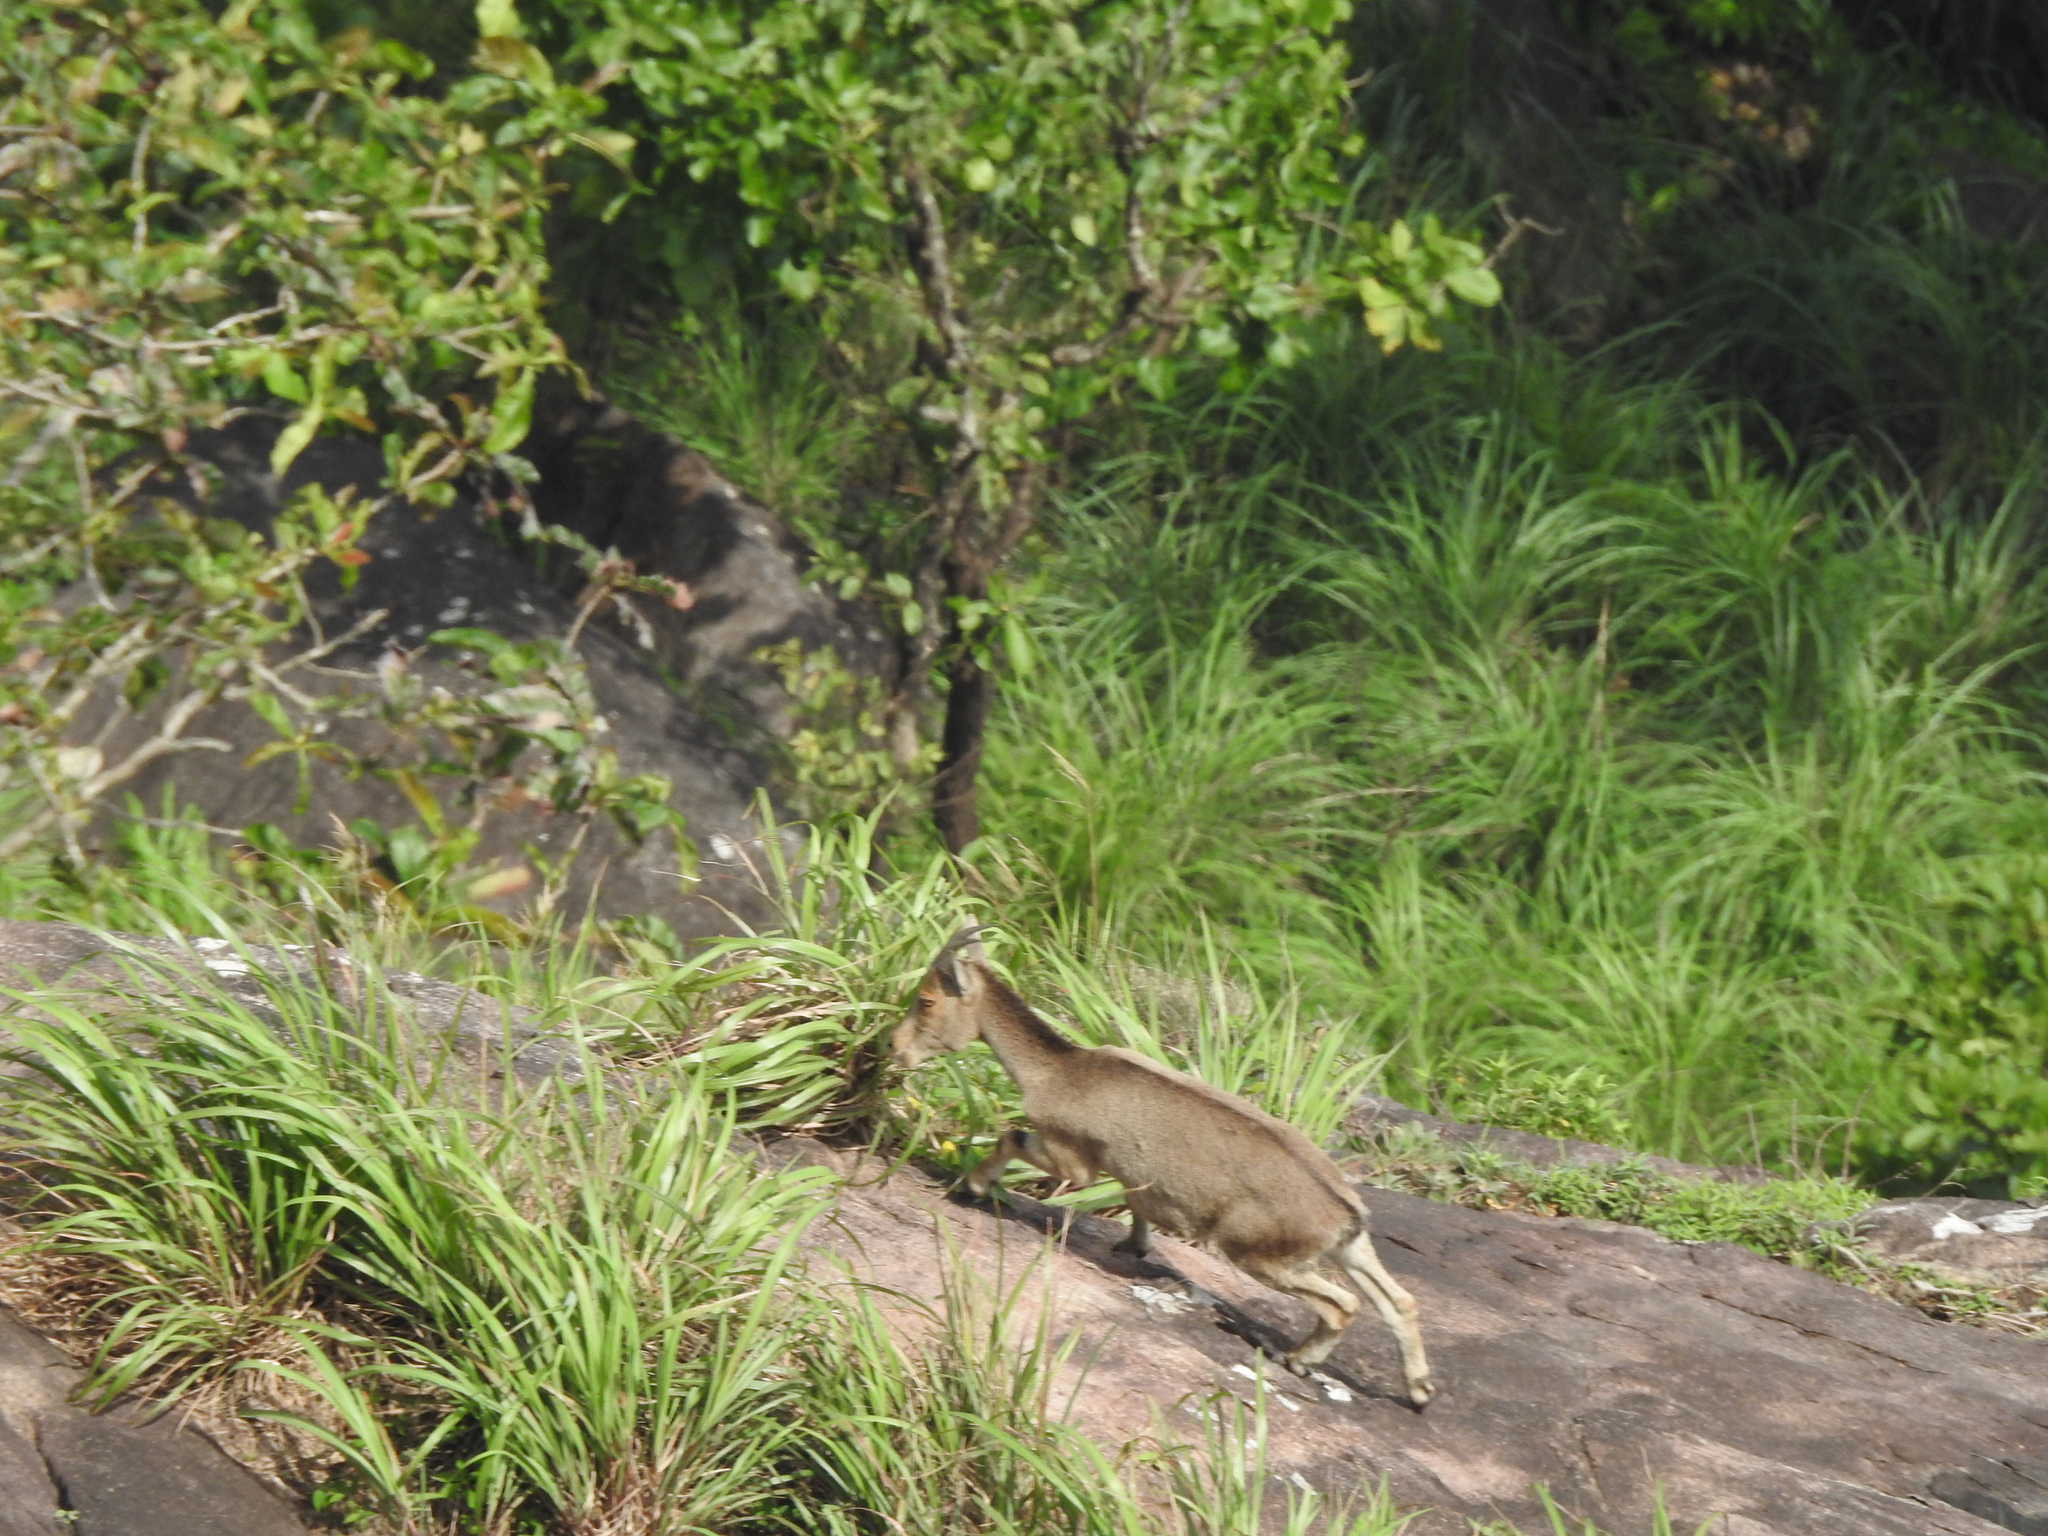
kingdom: Animalia
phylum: Chordata
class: Mammalia
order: Artiodactyla
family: Bovidae
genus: Hemitragus
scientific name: Hemitragus hylocrius
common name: Nilgiri tahr
